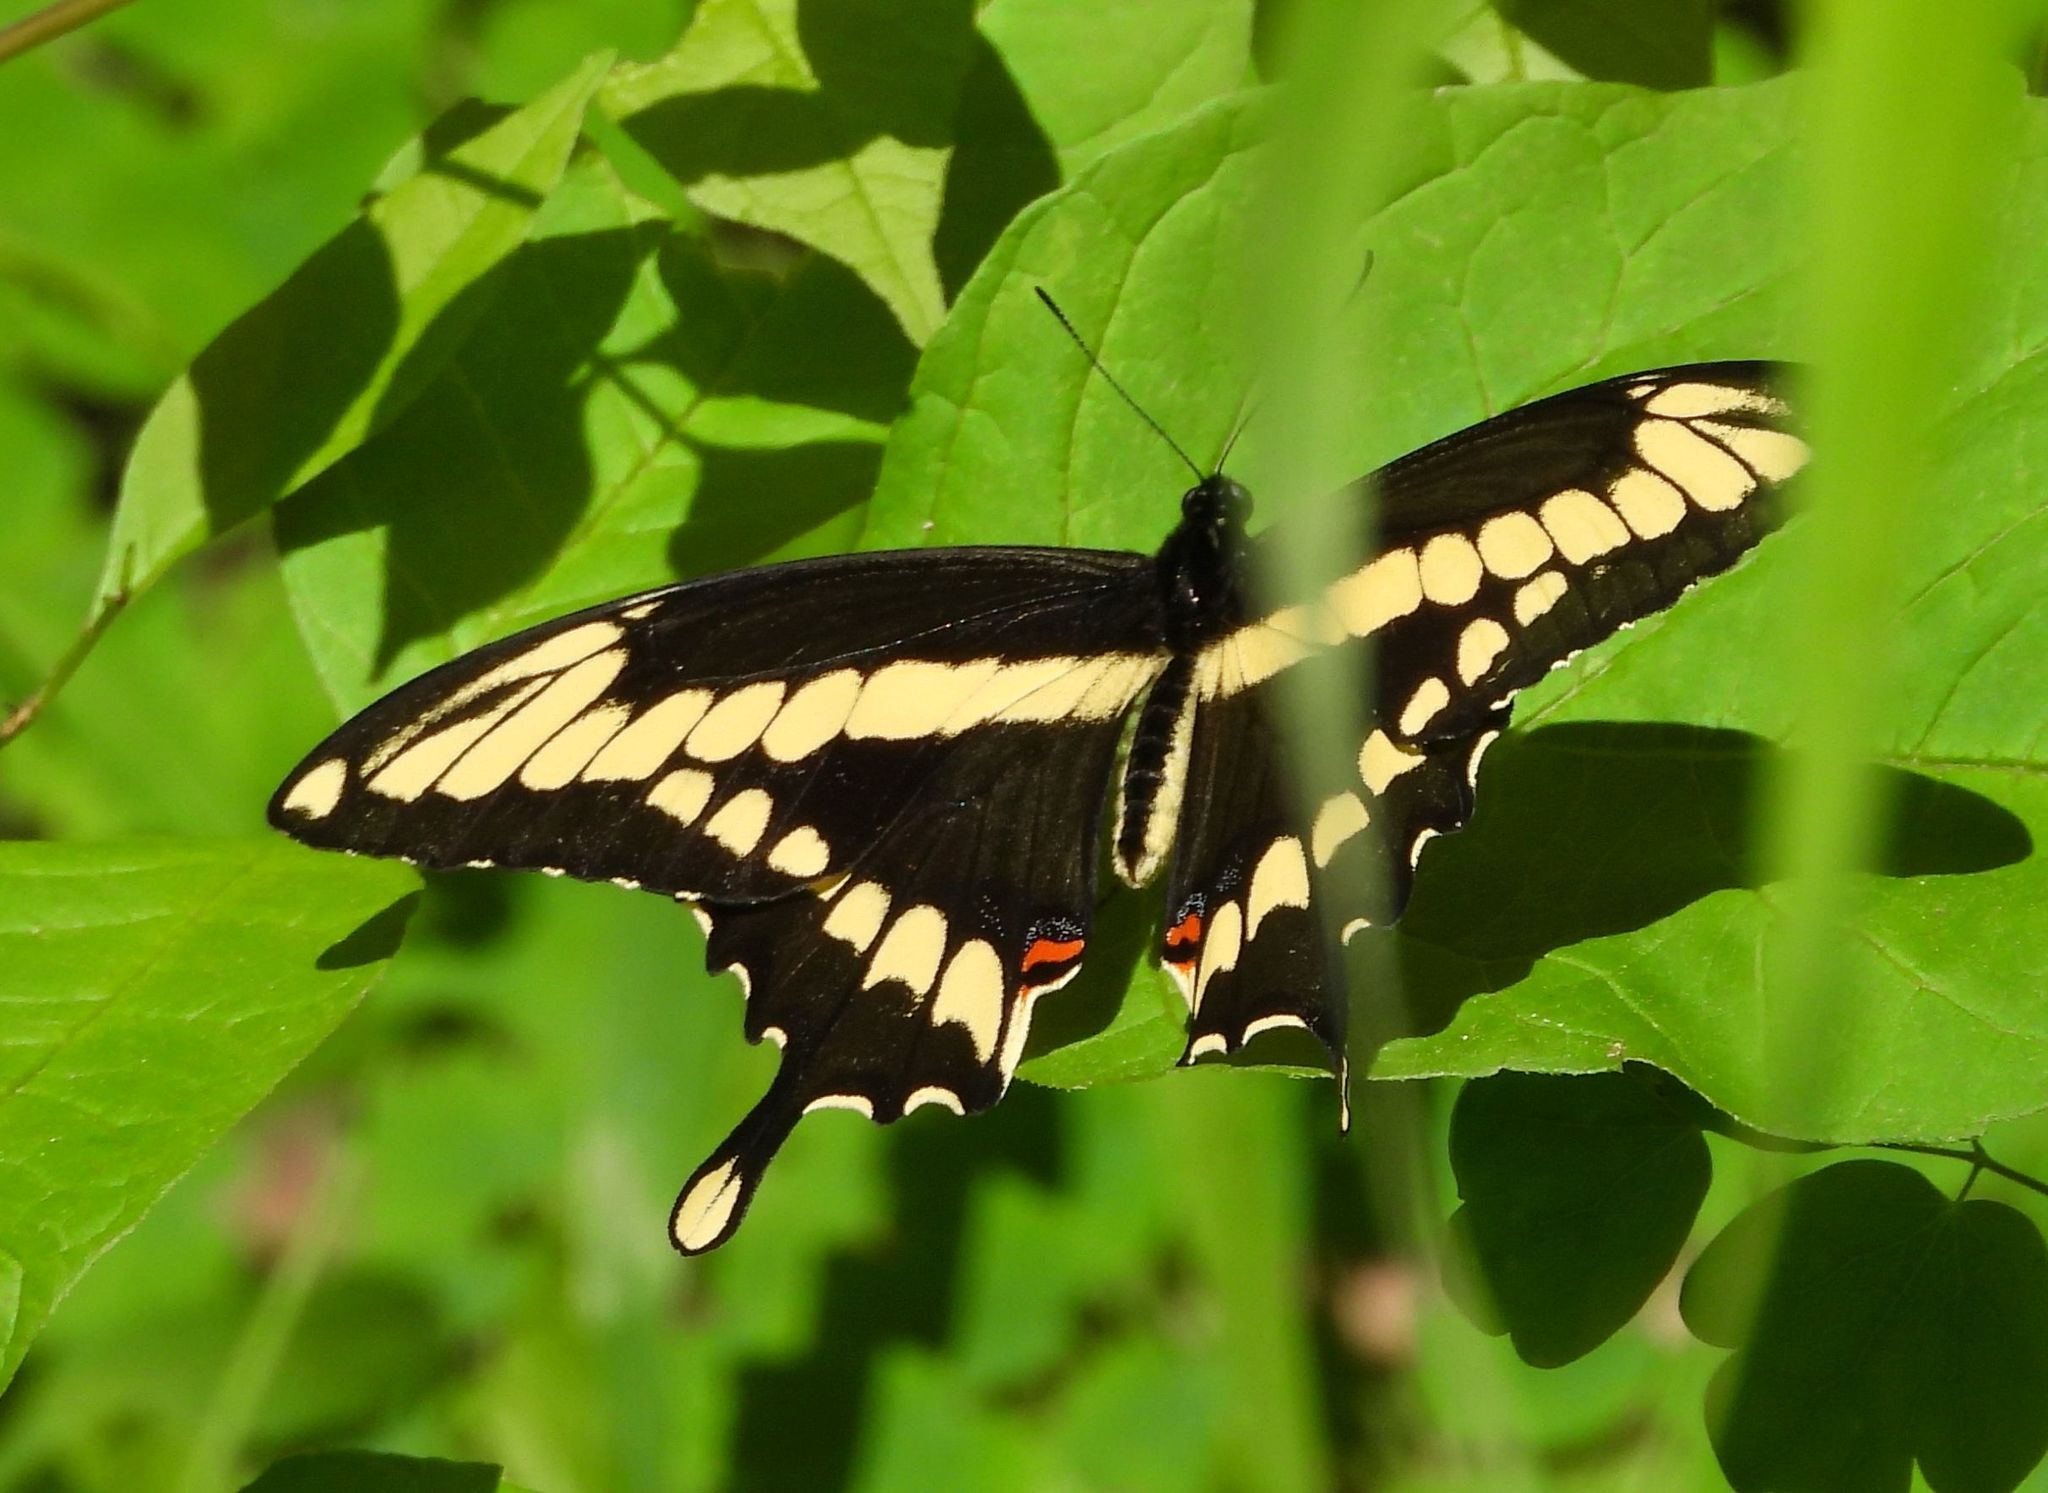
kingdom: Animalia
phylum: Arthropoda
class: Insecta
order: Lepidoptera
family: Papilionidae
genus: Papilio
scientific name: Papilio cresphontes
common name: Giant swallowtail
